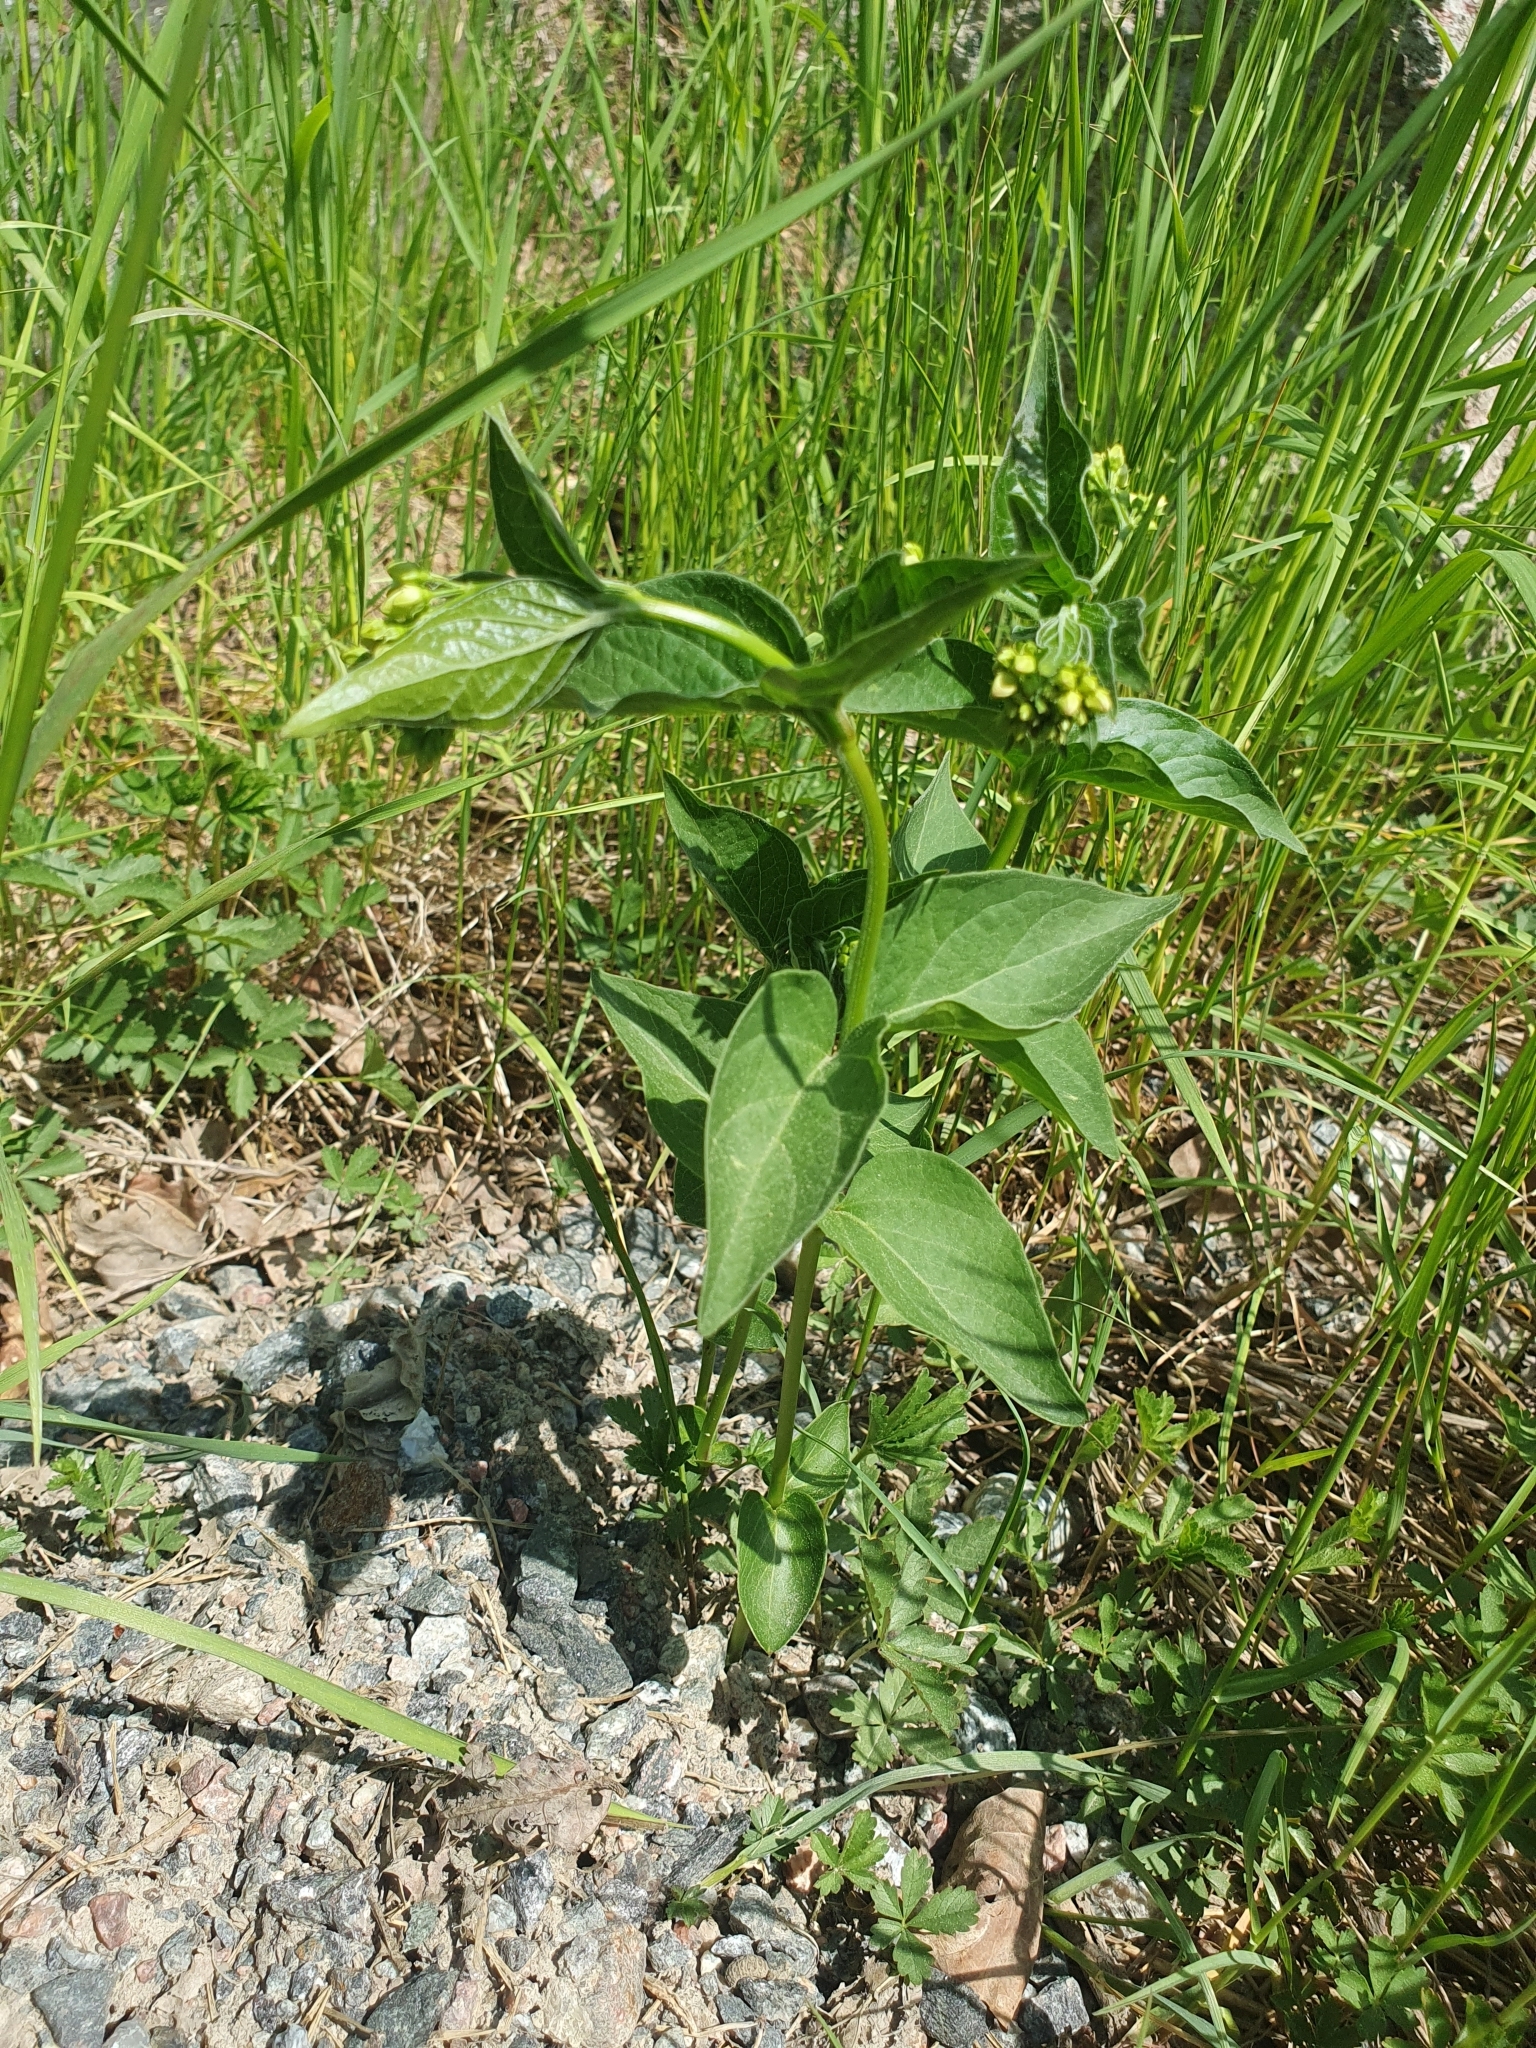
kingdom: Plantae
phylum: Tracheophyta
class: Magnoliopsida
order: Gentianales
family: Apocynaceae
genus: Vincetoxicum
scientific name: Vincetoxicum hirundinaria
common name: White swallowwort
